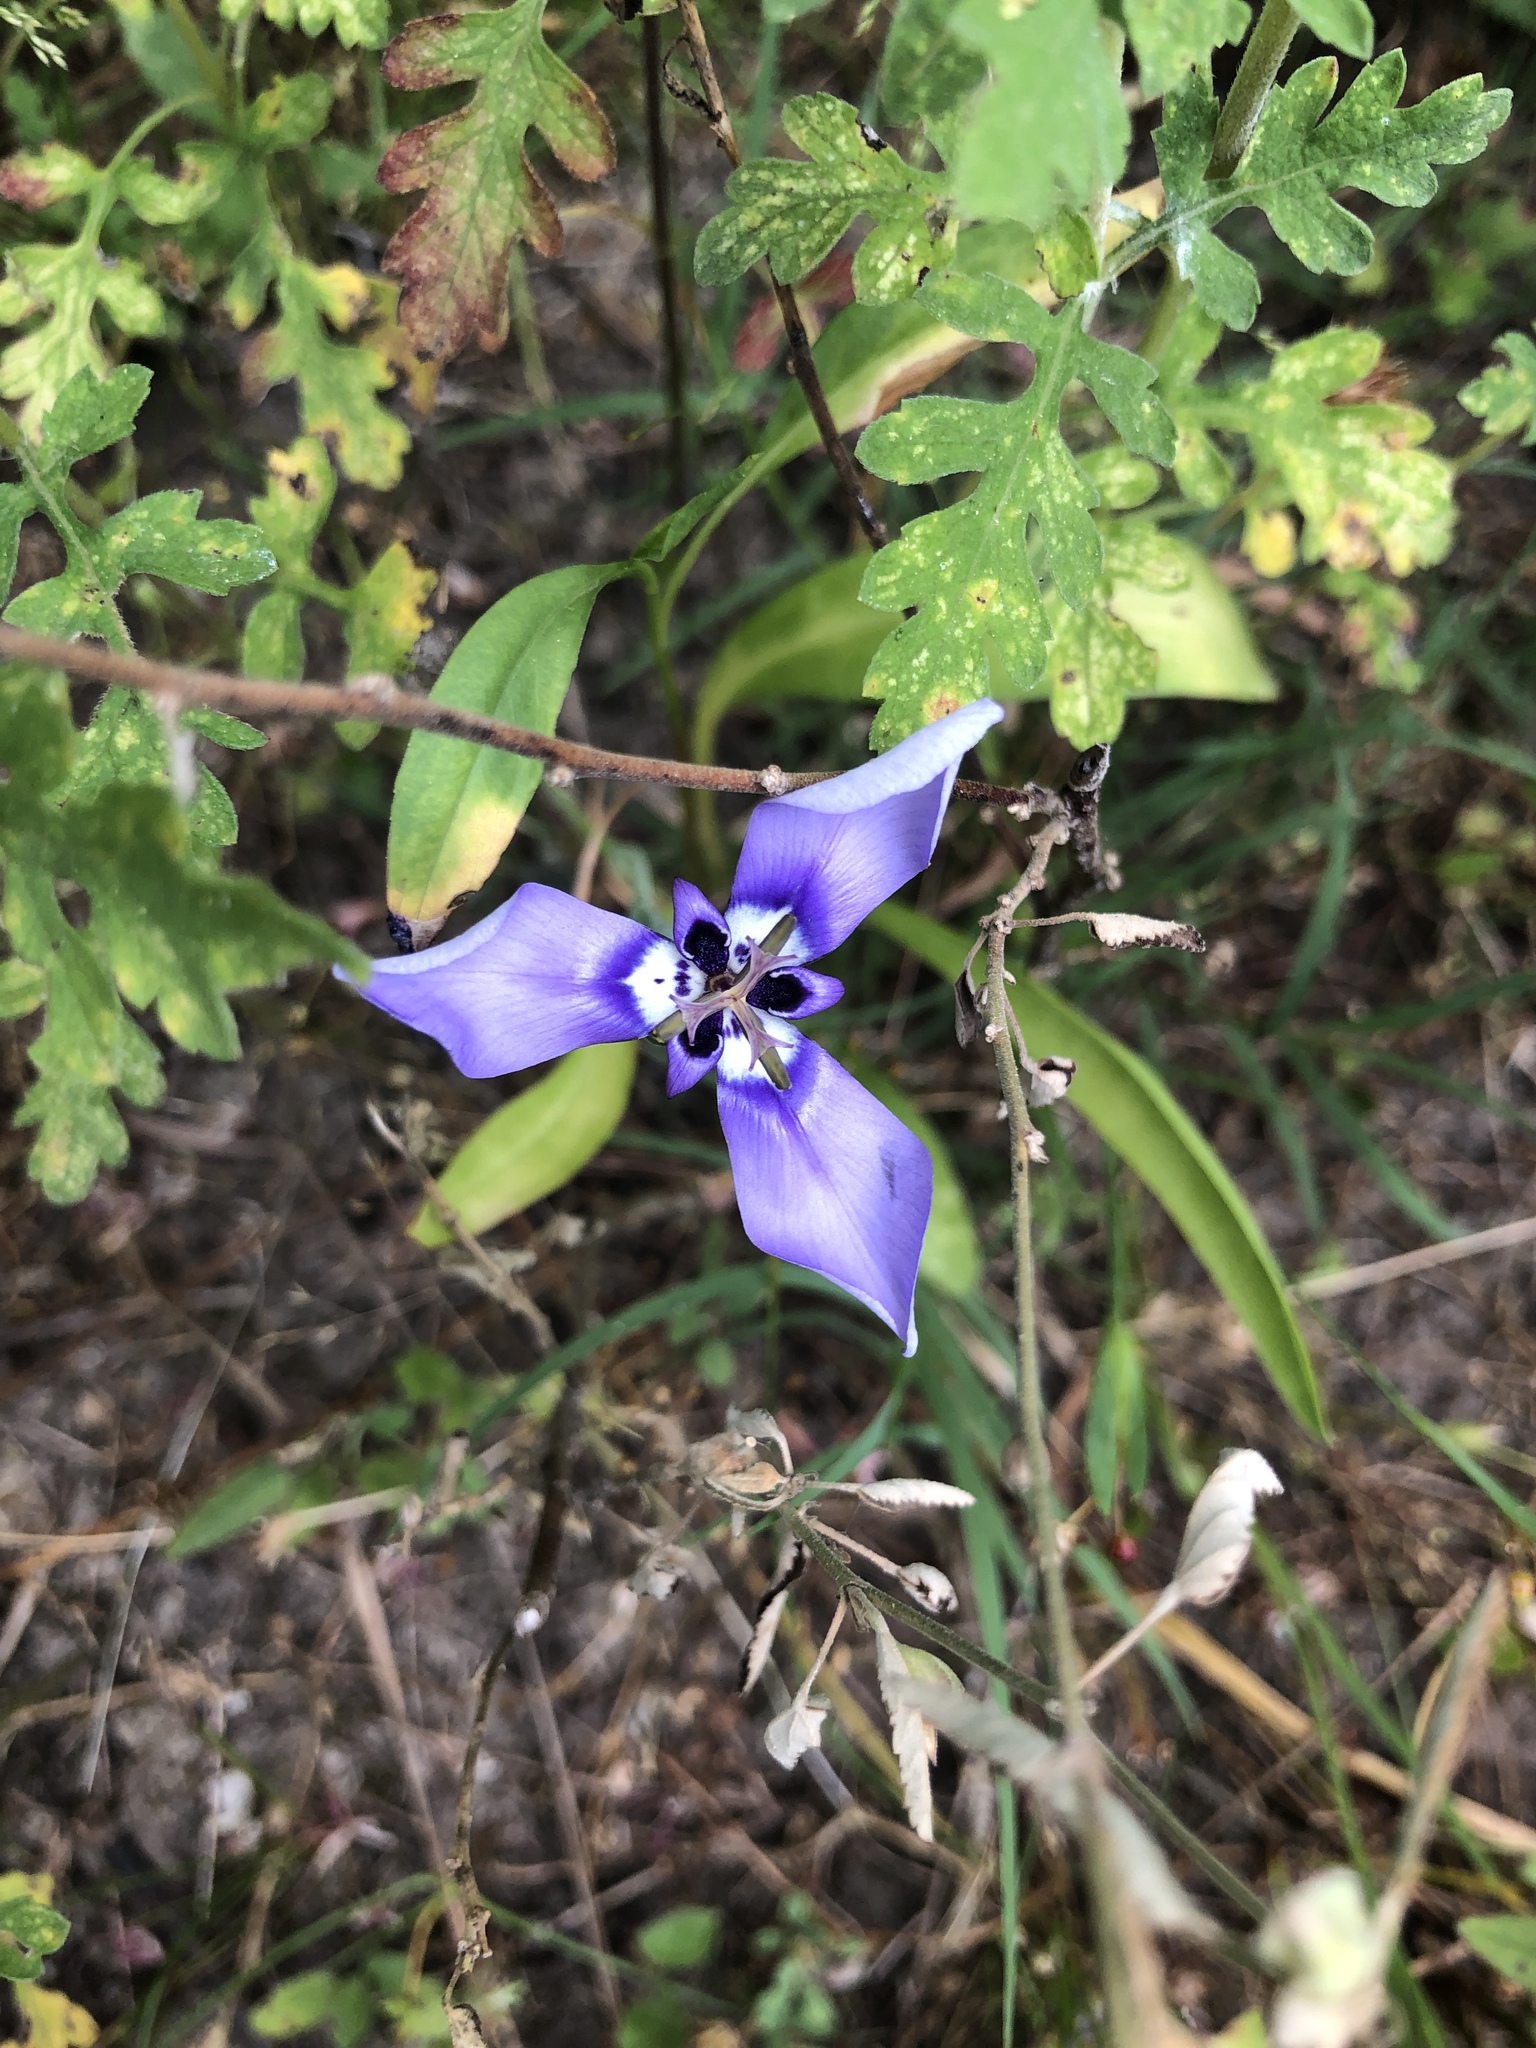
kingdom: Plantae
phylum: Tracheophyta
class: Liliopsida
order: Asparagales
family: Iridaceae
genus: Herbertia
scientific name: Herbertia lahue
